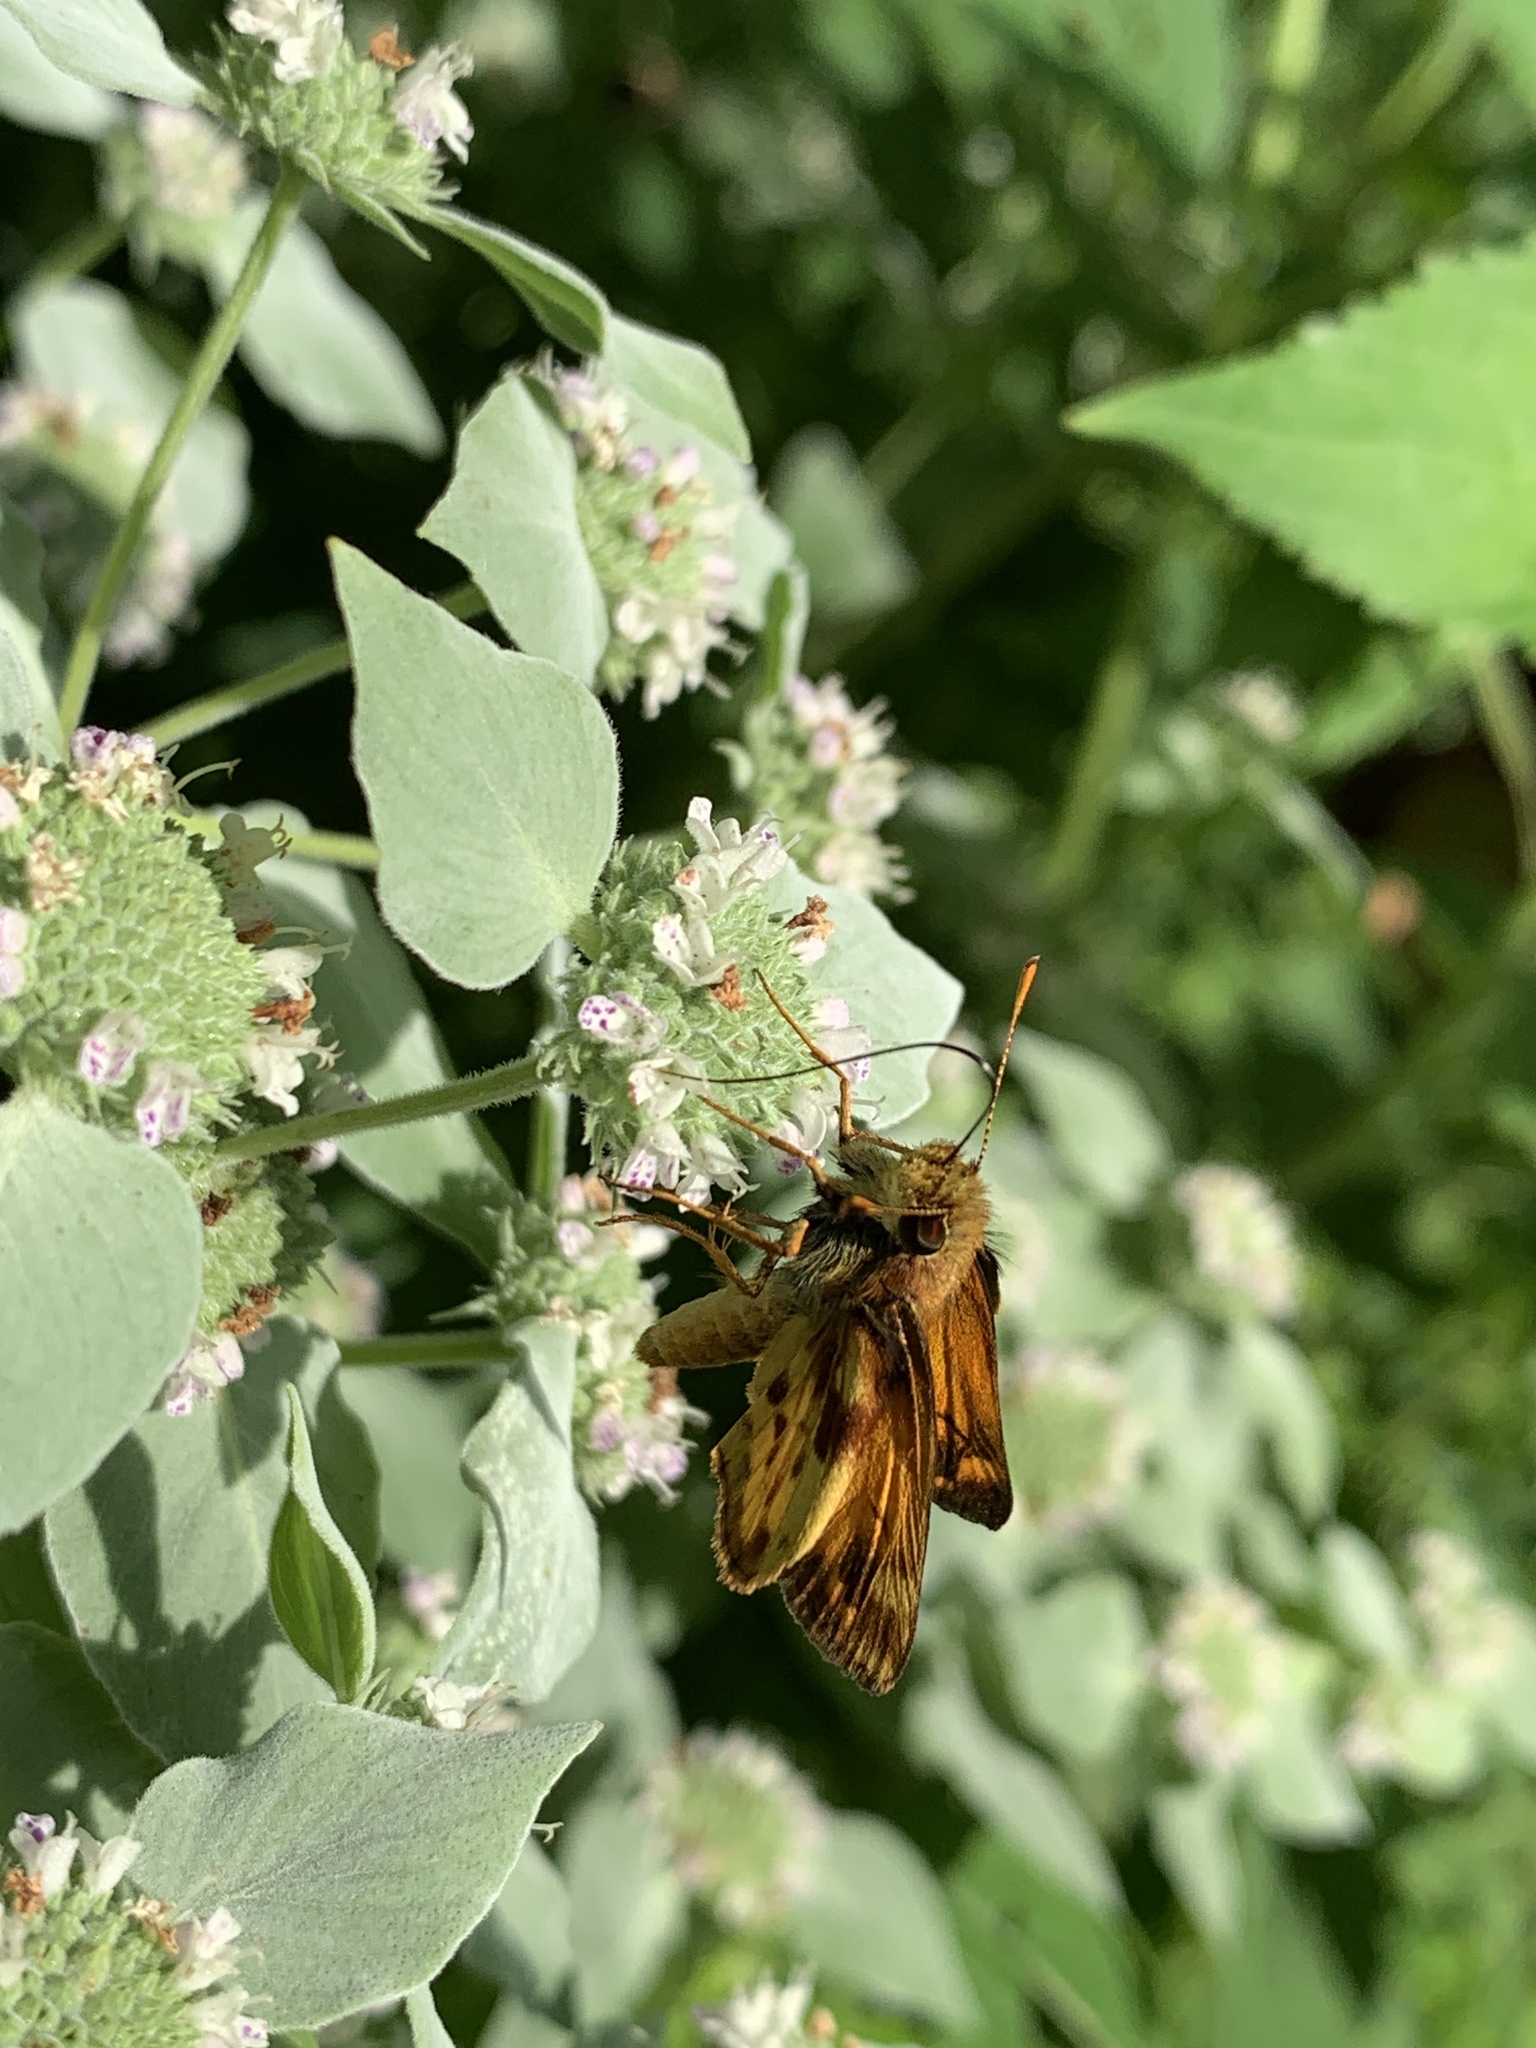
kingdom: Animalia
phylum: Arthropoda
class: Insecta
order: Lepidoptera
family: Hesperiidae
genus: Lon
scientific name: Lon zabulon
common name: Zabulon skipper
